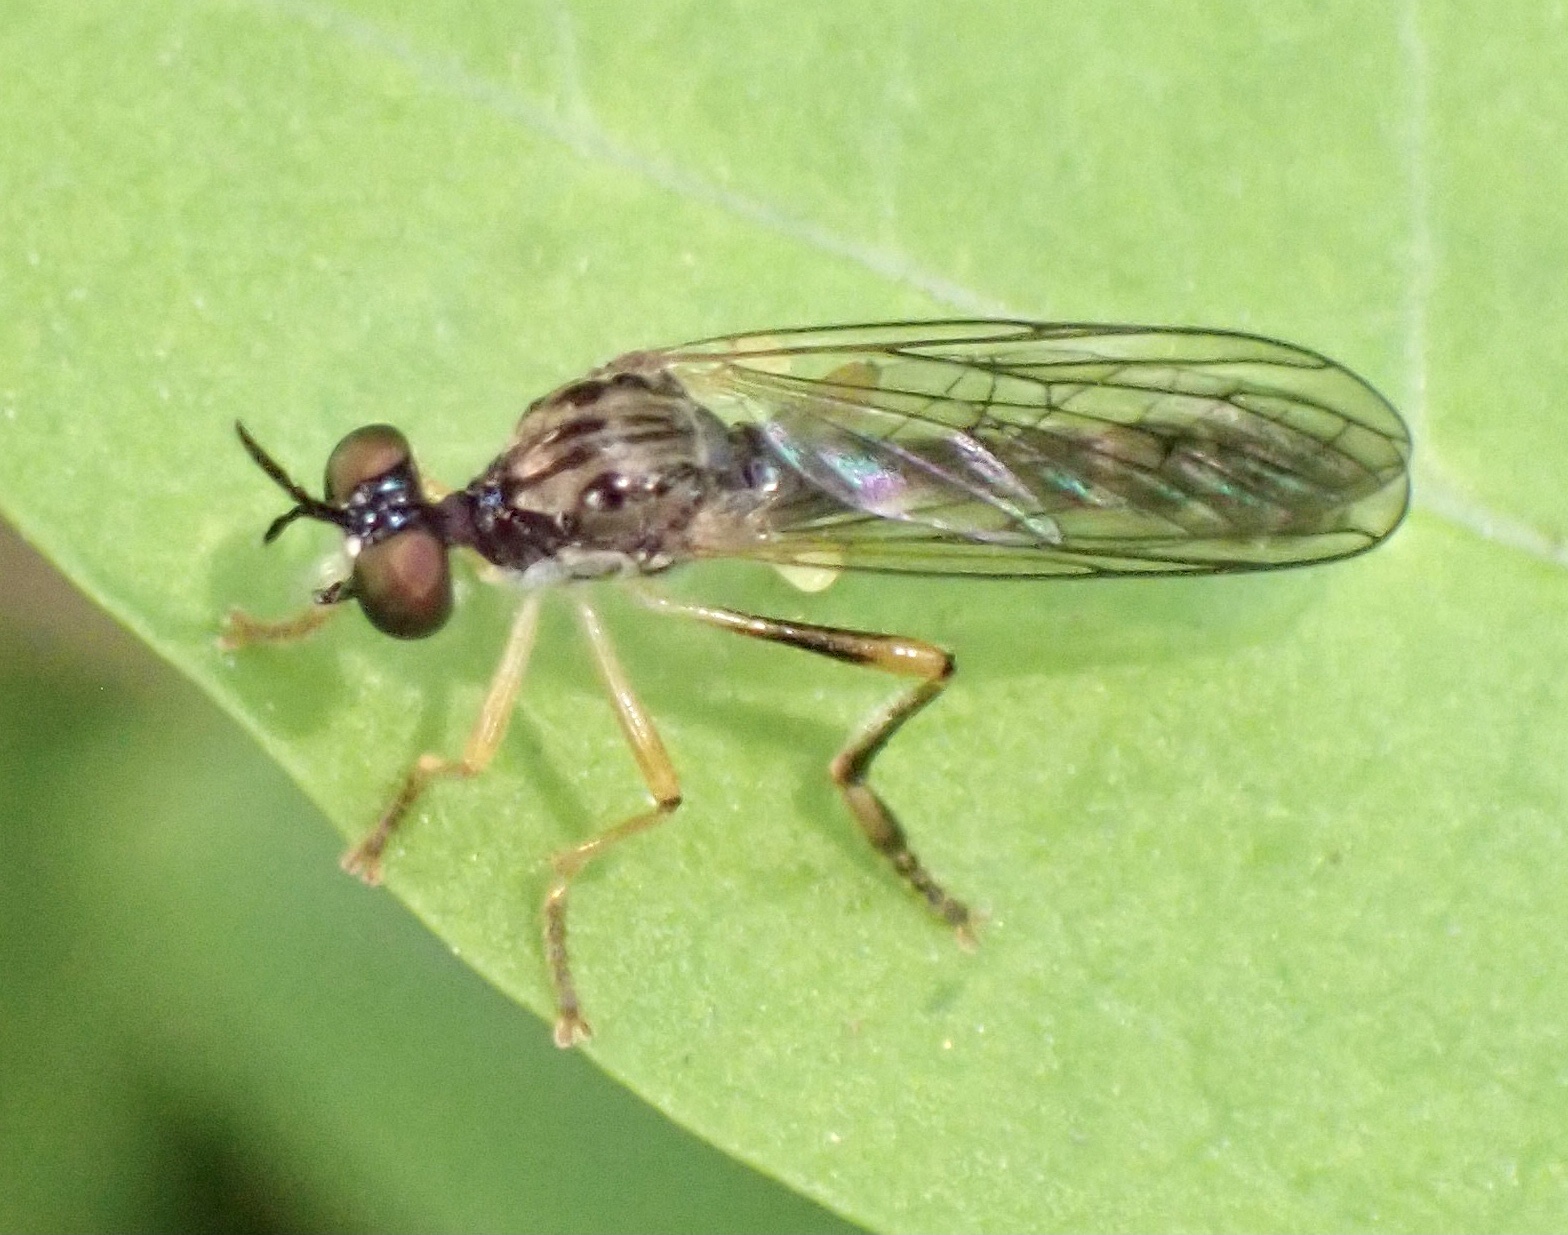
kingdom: Animalia
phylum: Arthropoda
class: Insecta
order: Diptera
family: Asilidae
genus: Dioctria
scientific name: Dioctria linearis
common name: Small yellow-legged robberfly
